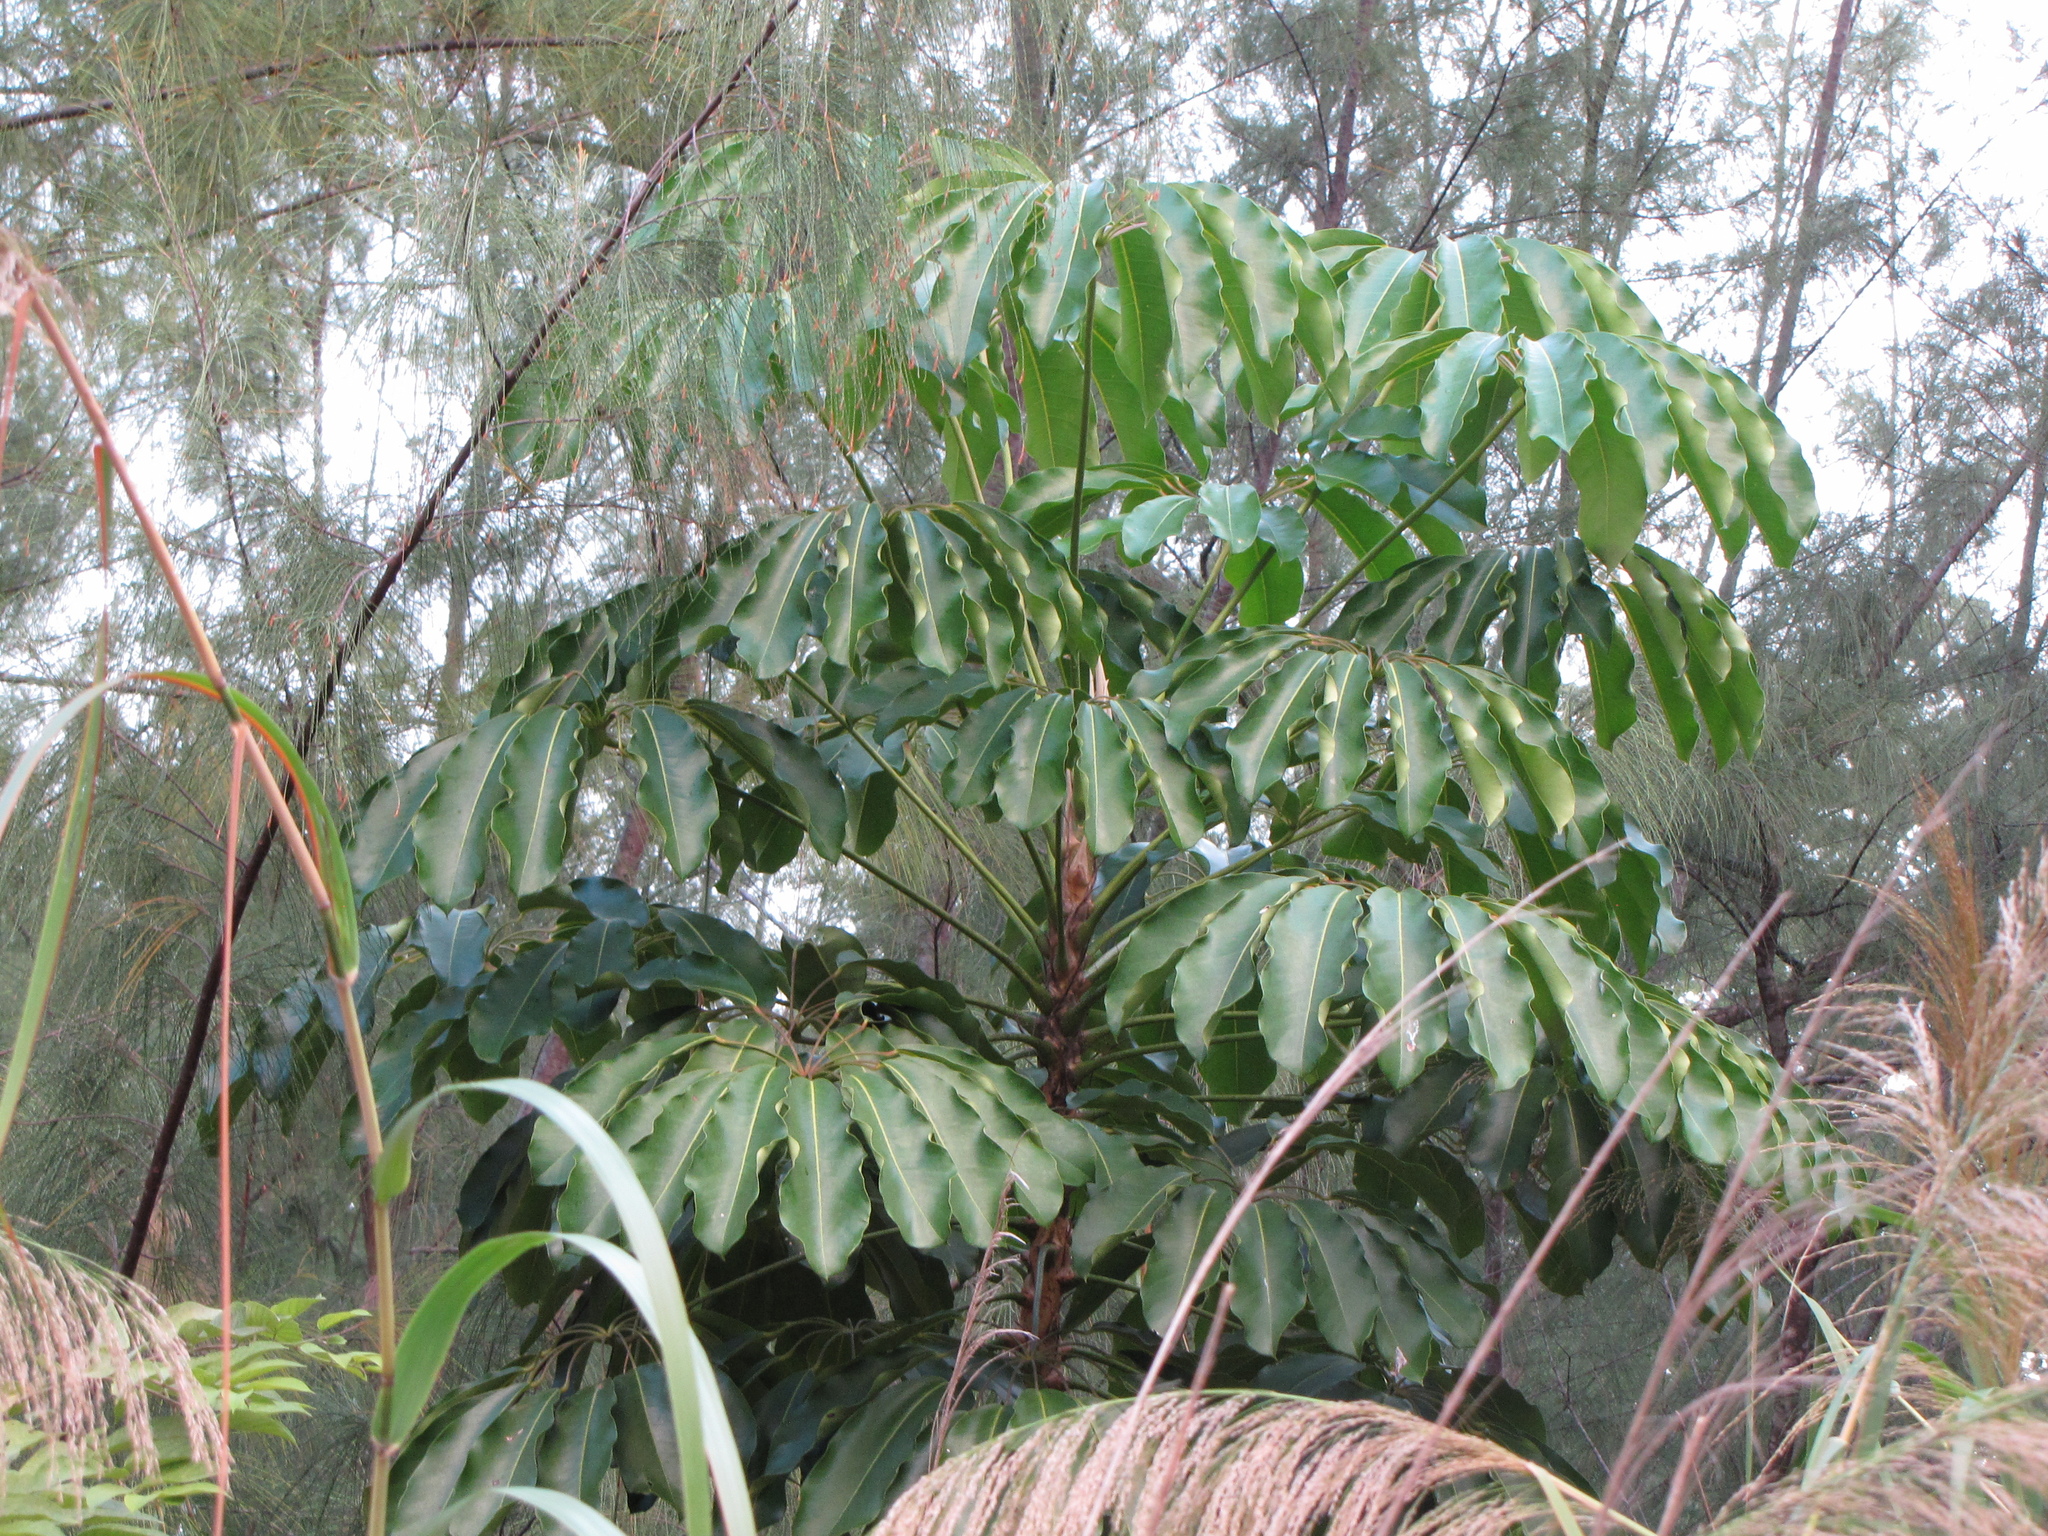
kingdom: Plantae
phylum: Tracheophyta
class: Magnoliopsida
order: Apiales
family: Araliaceae
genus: Heptapleurum
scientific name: Heptapleurum actinophyllum
